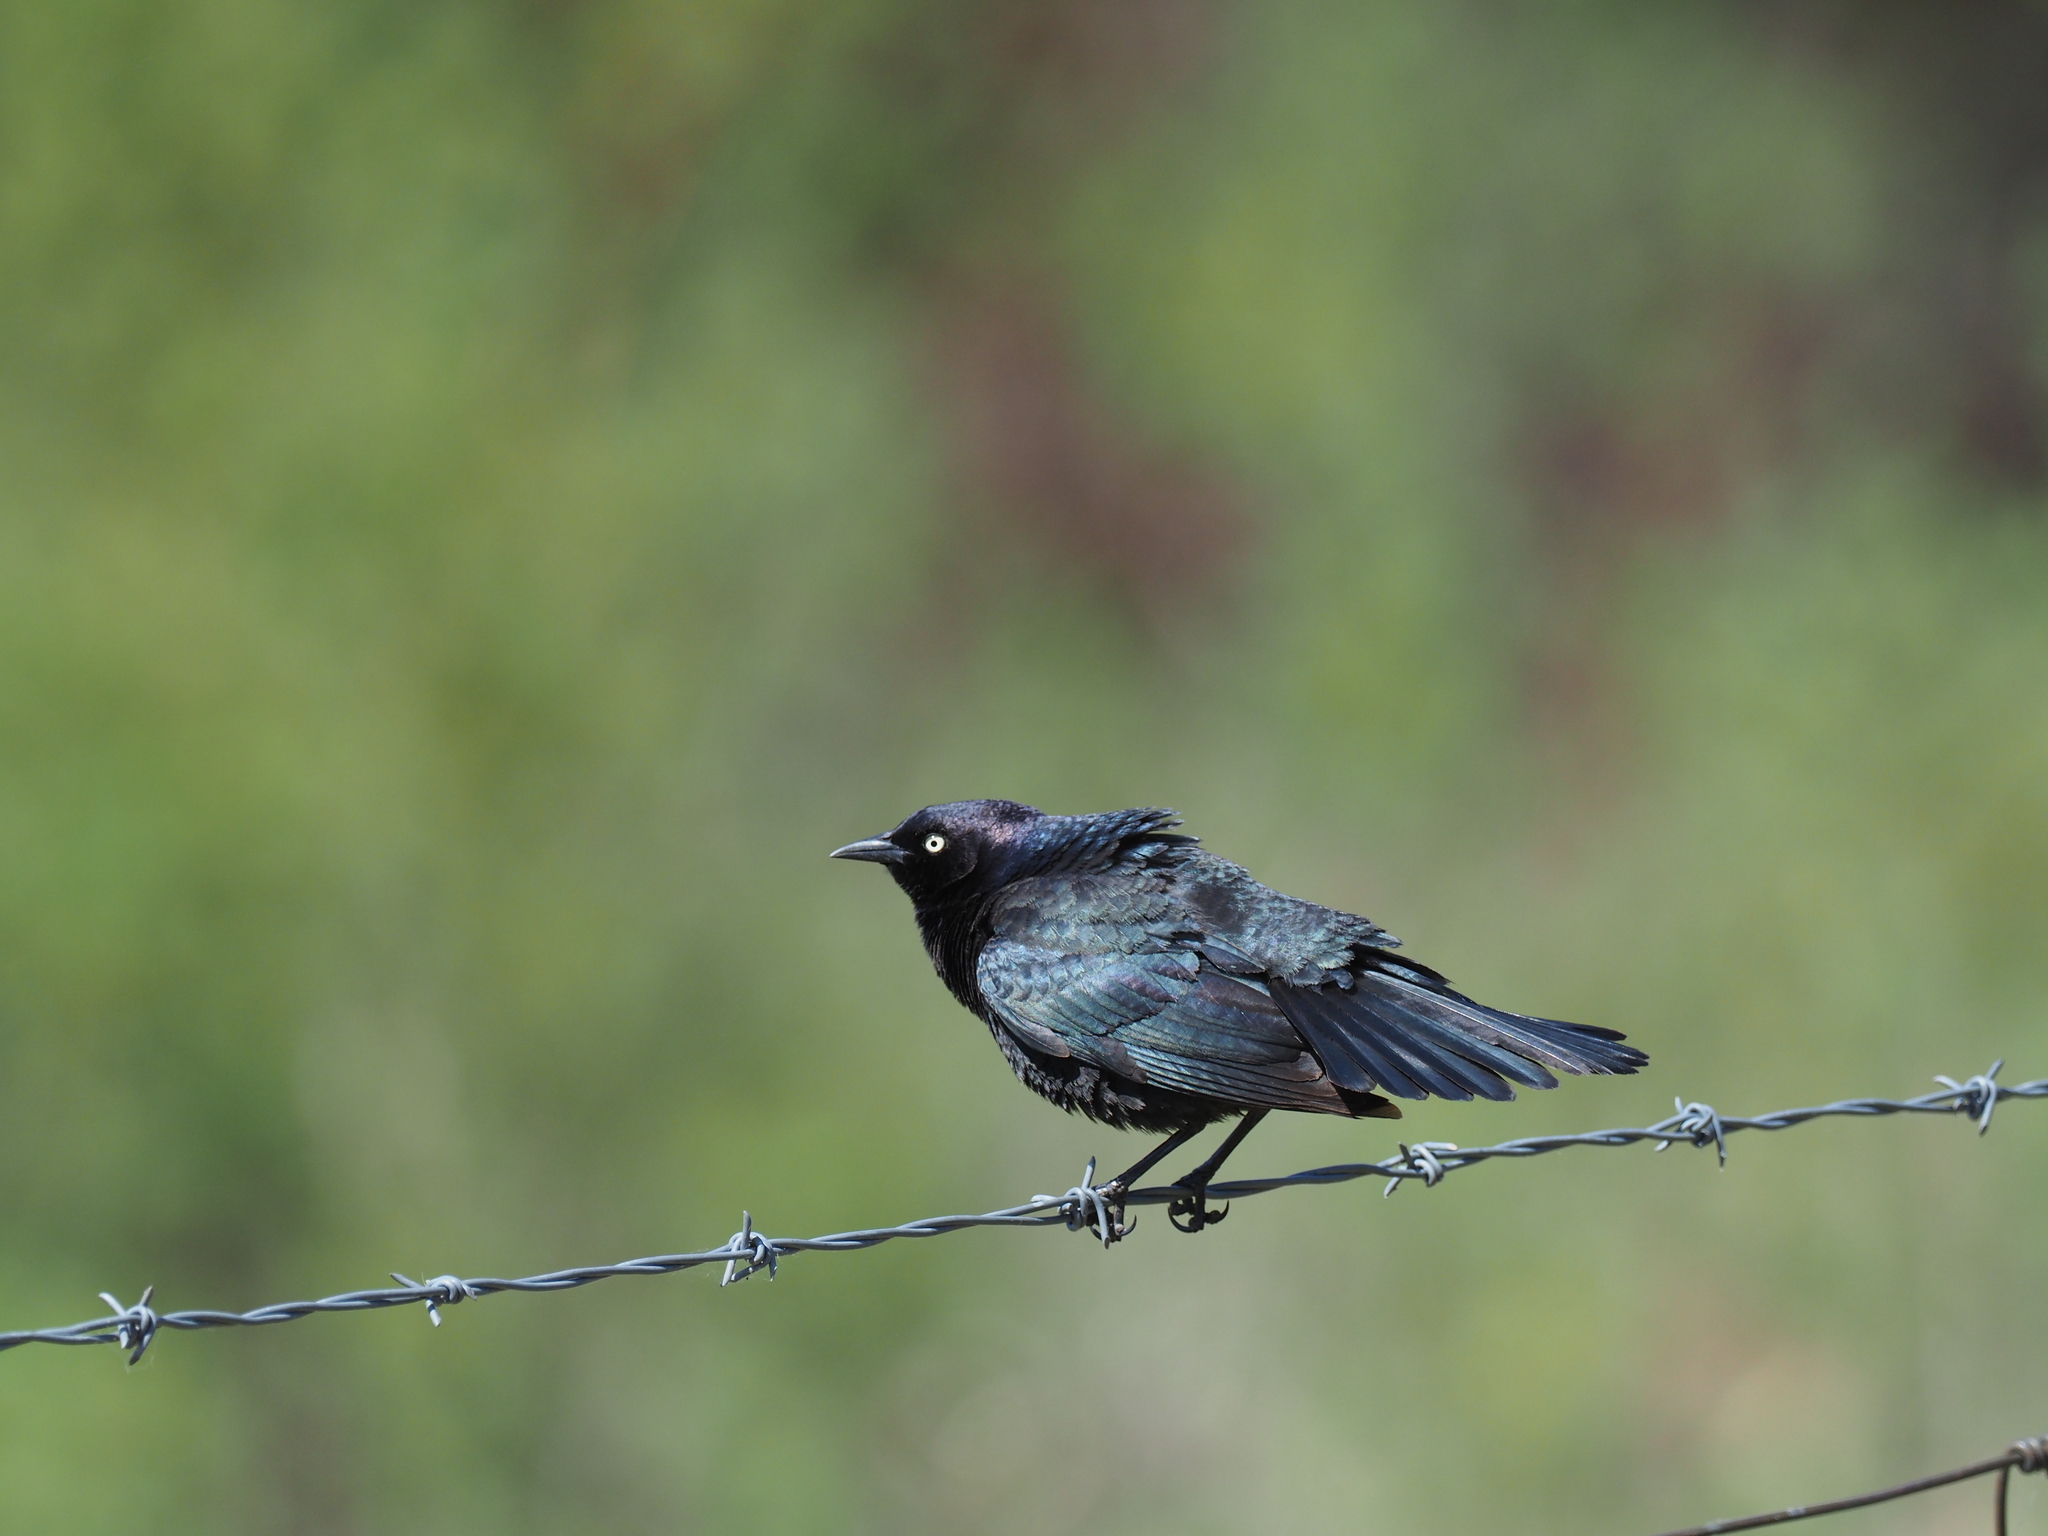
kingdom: Animalia
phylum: Chordata
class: Aves
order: Passeriformes
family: Icteridae
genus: Euphagus
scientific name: Euphagus cyanocephalus
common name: Brewer's blackbird
